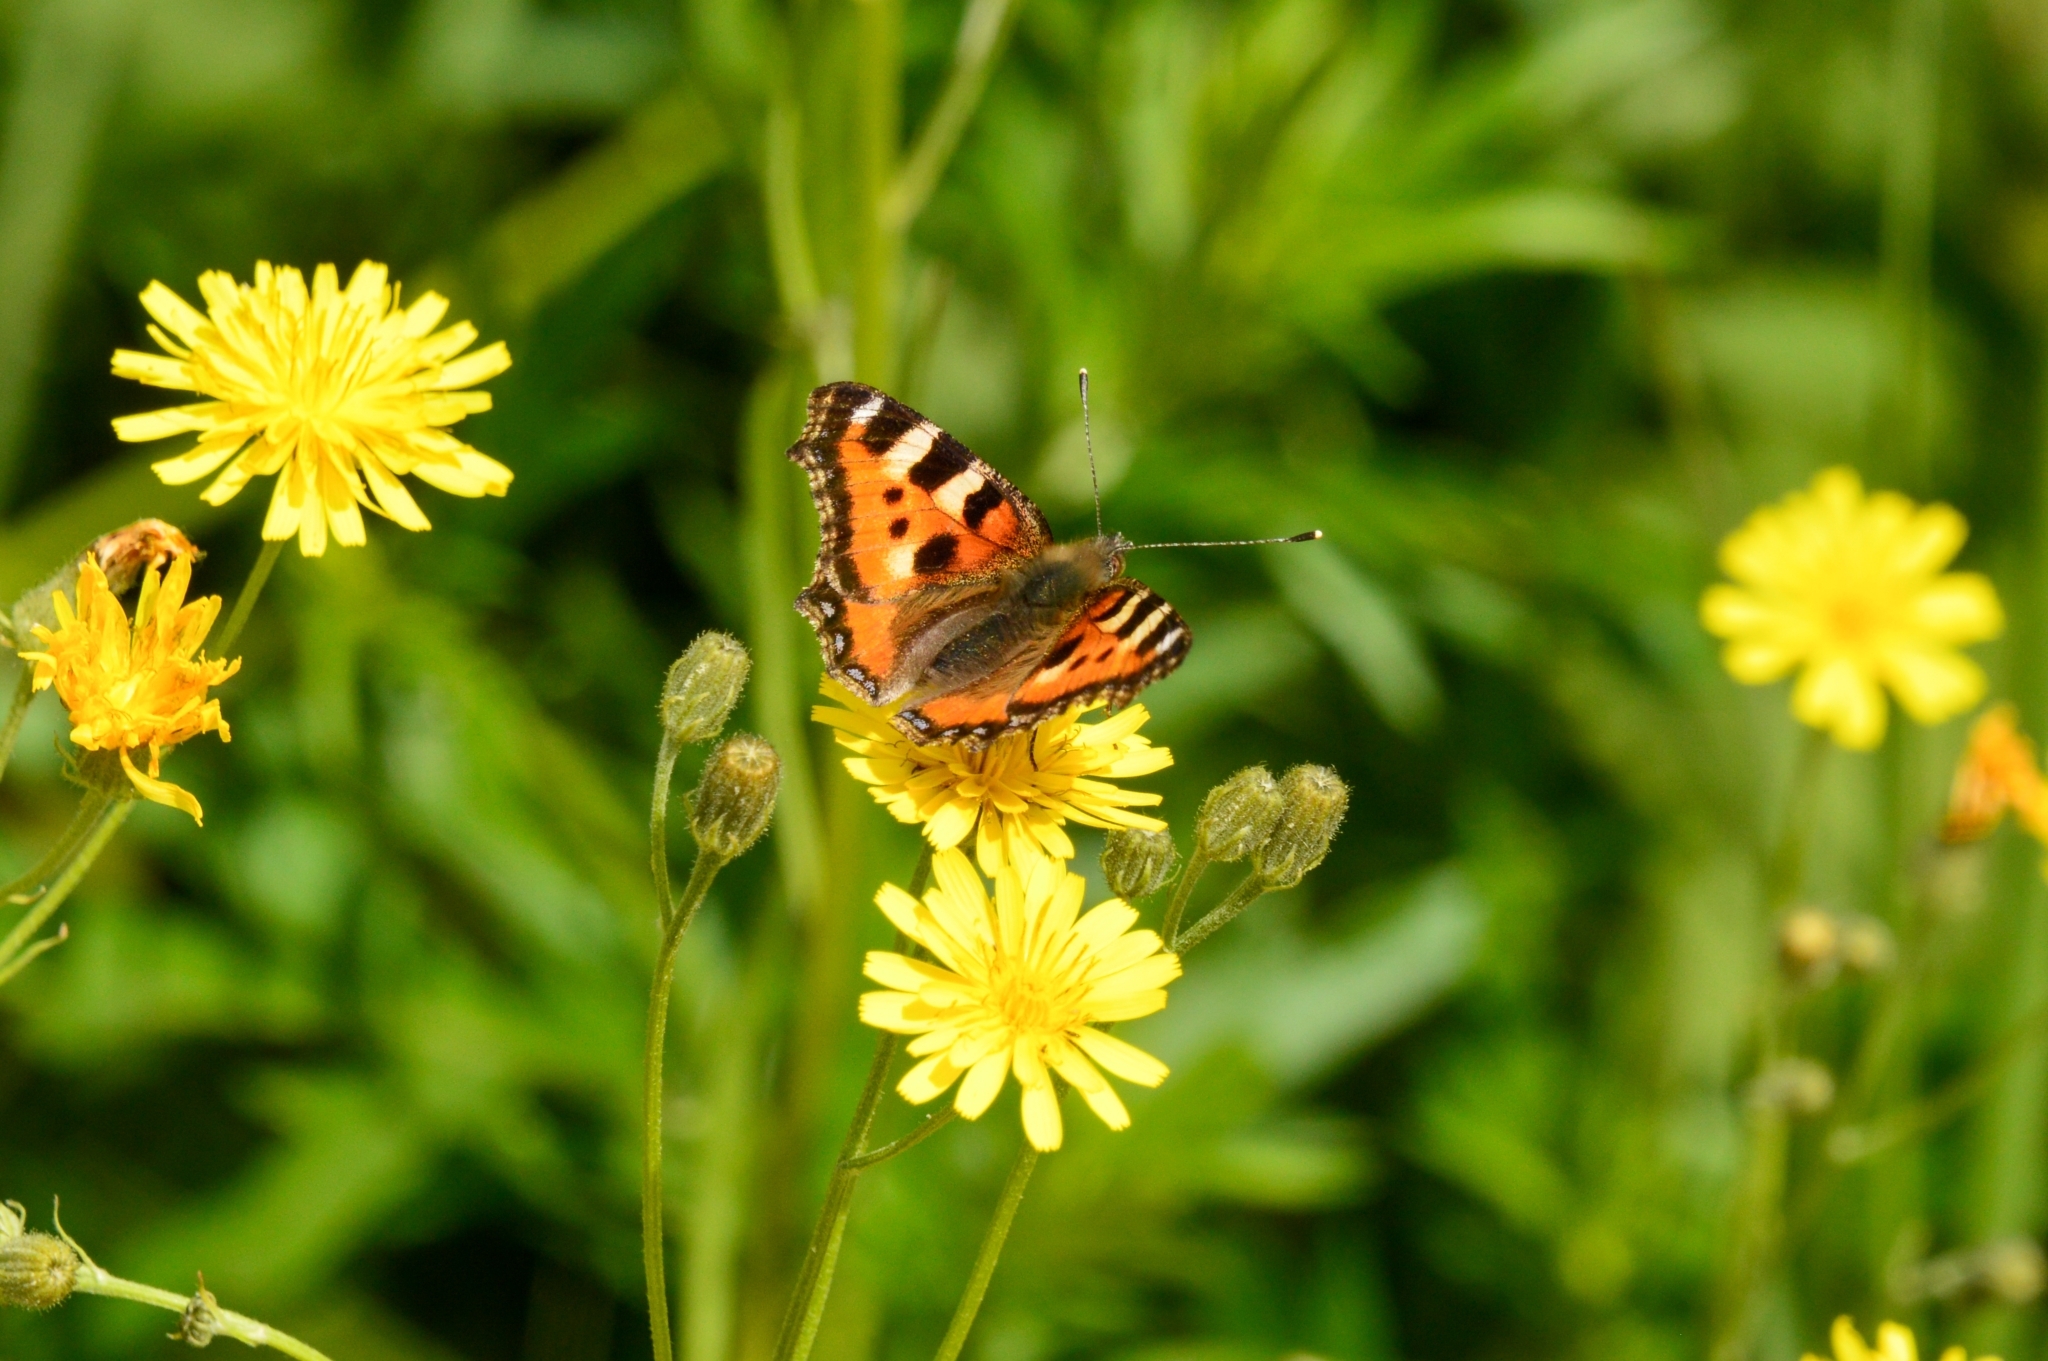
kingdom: Animalia
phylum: Arthropoda
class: Insecta
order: Lepidoptera
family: Nymphalidae
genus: Aglais
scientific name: Aglais urticae
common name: Small tortoiseshell
